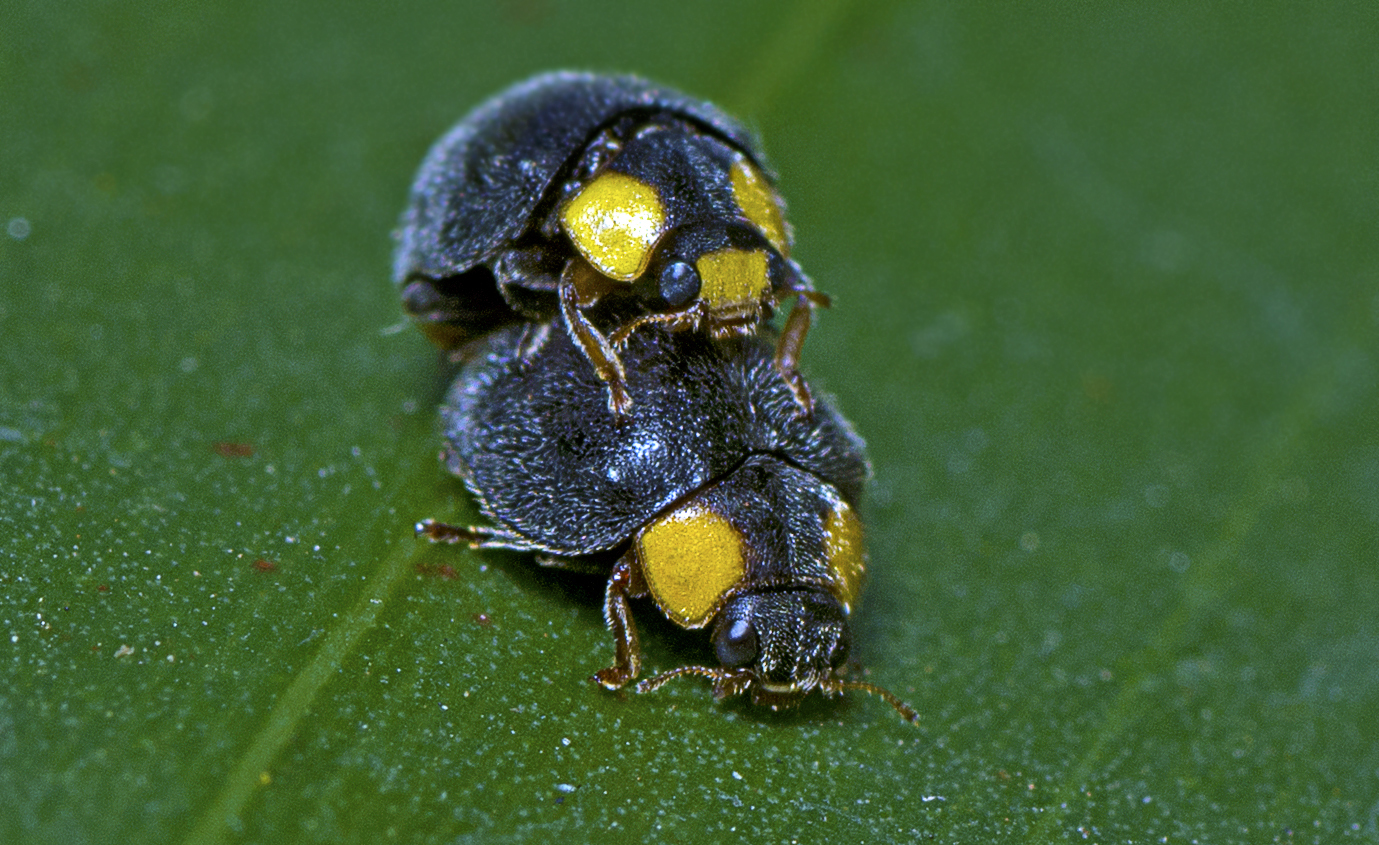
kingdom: Animalia
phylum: Arthropoda
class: Insecta
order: Coleoptera
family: Coccinellidae
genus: Scymnodes
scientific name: Scymnodes lividigaster
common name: Yellowshouldered lady beetle
